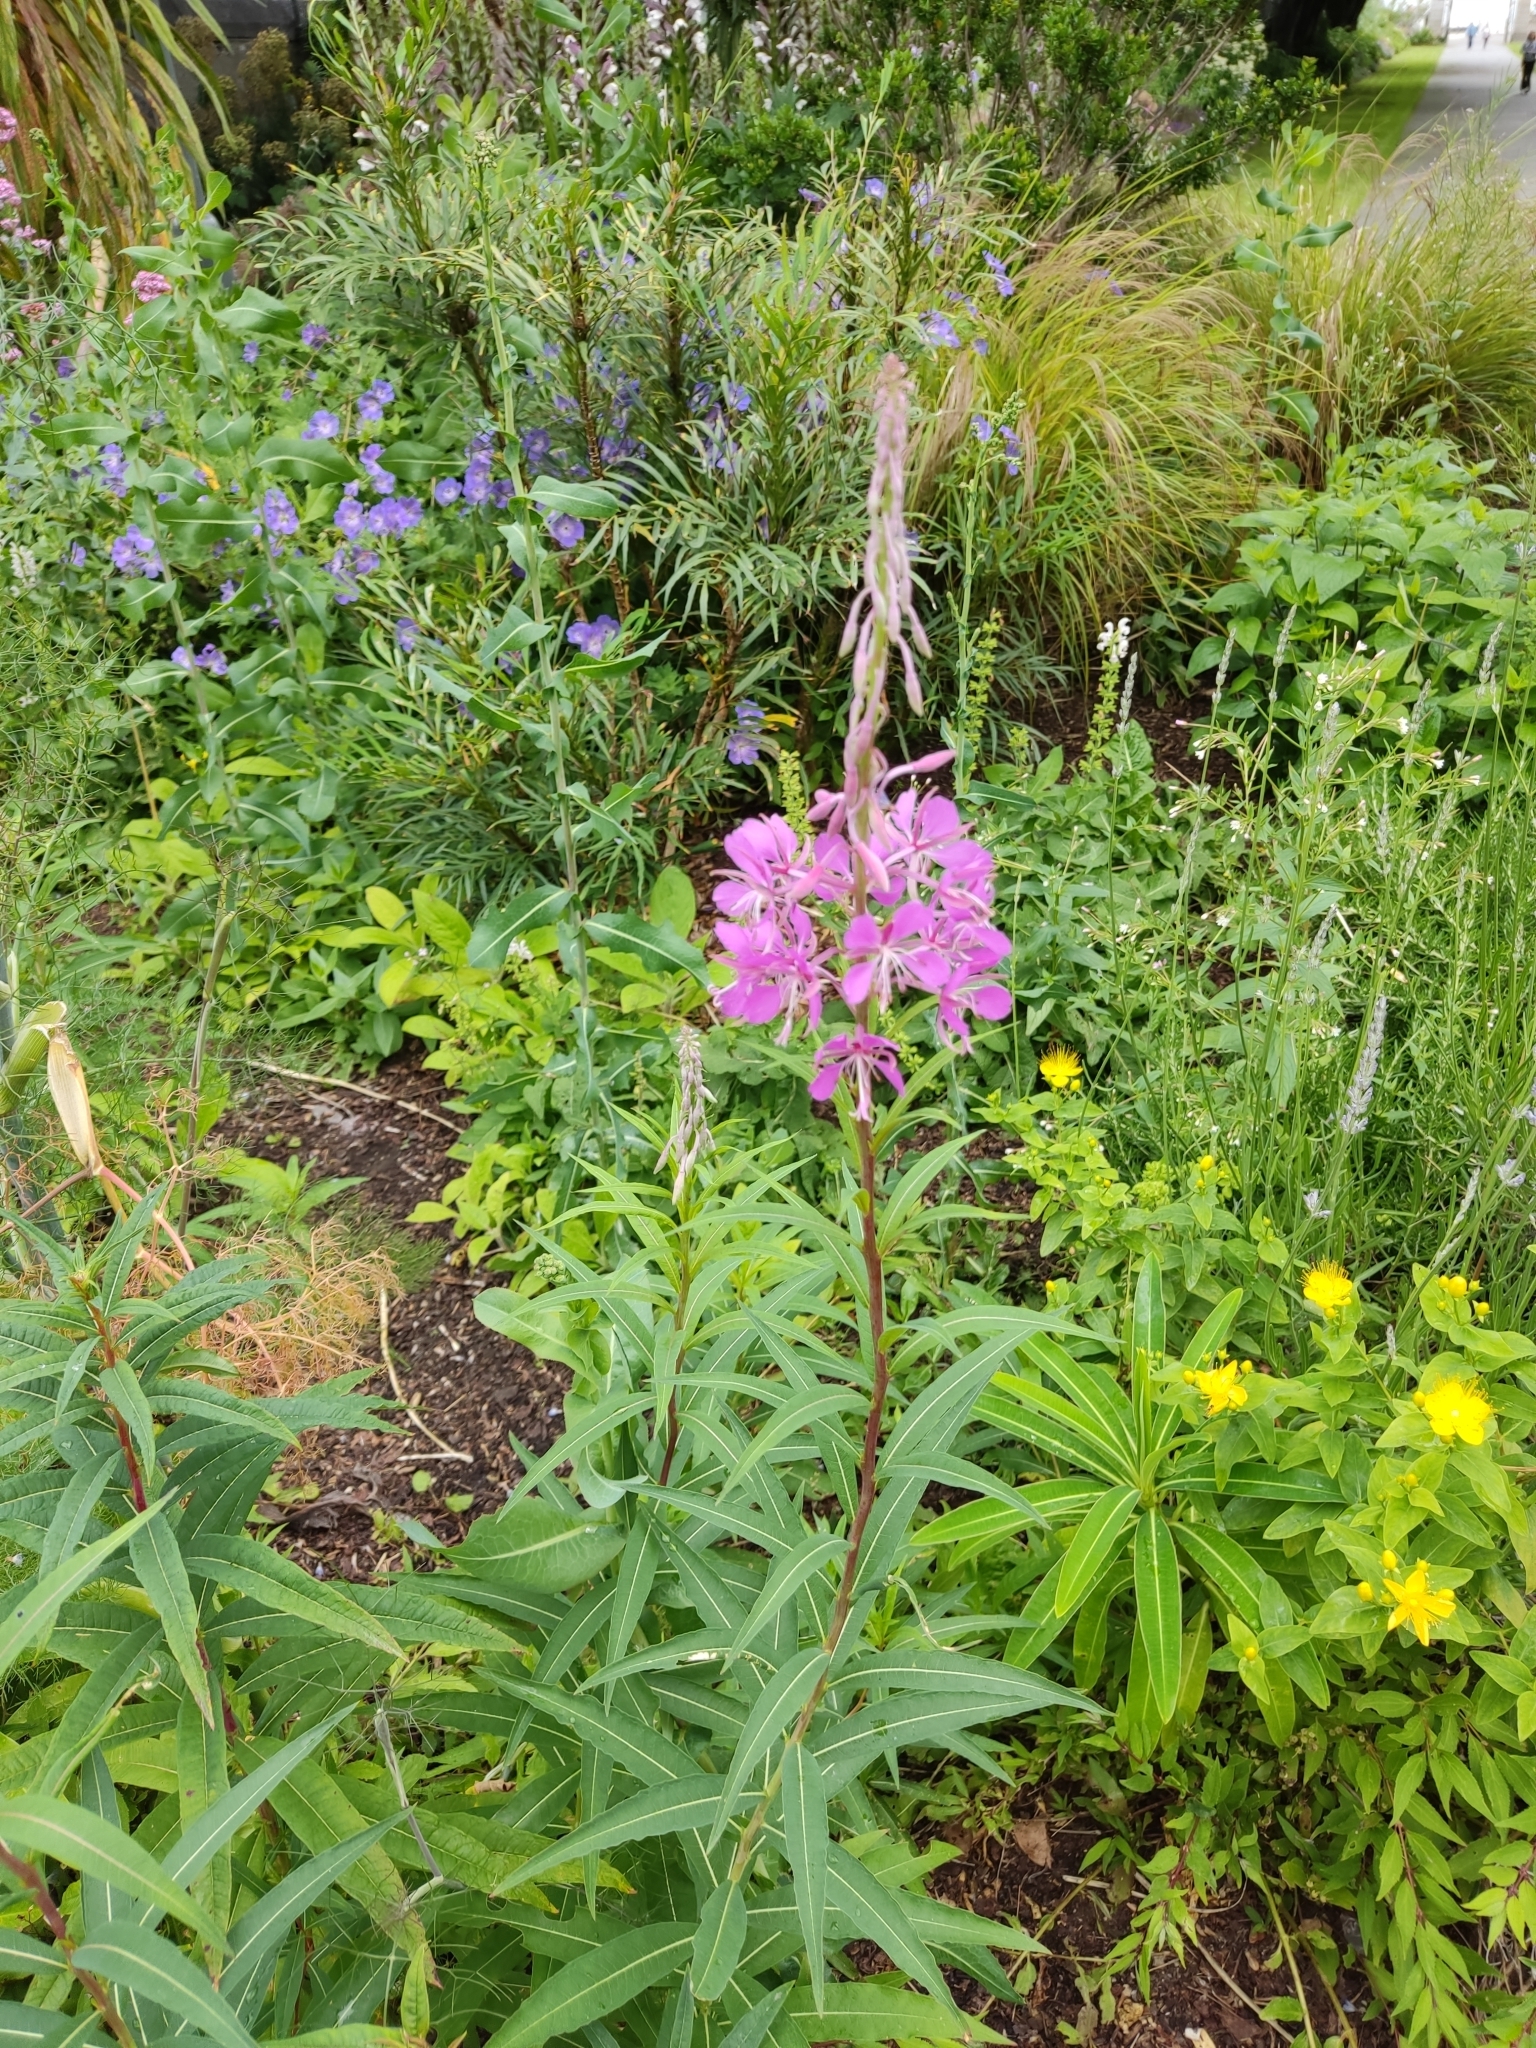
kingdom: Plantae
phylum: Tracheophyta
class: Magnoliopsida
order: Myrtales
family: Onagraceae
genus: Chamaenerion
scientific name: Chamaenerion angustifolium
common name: Fireweed
